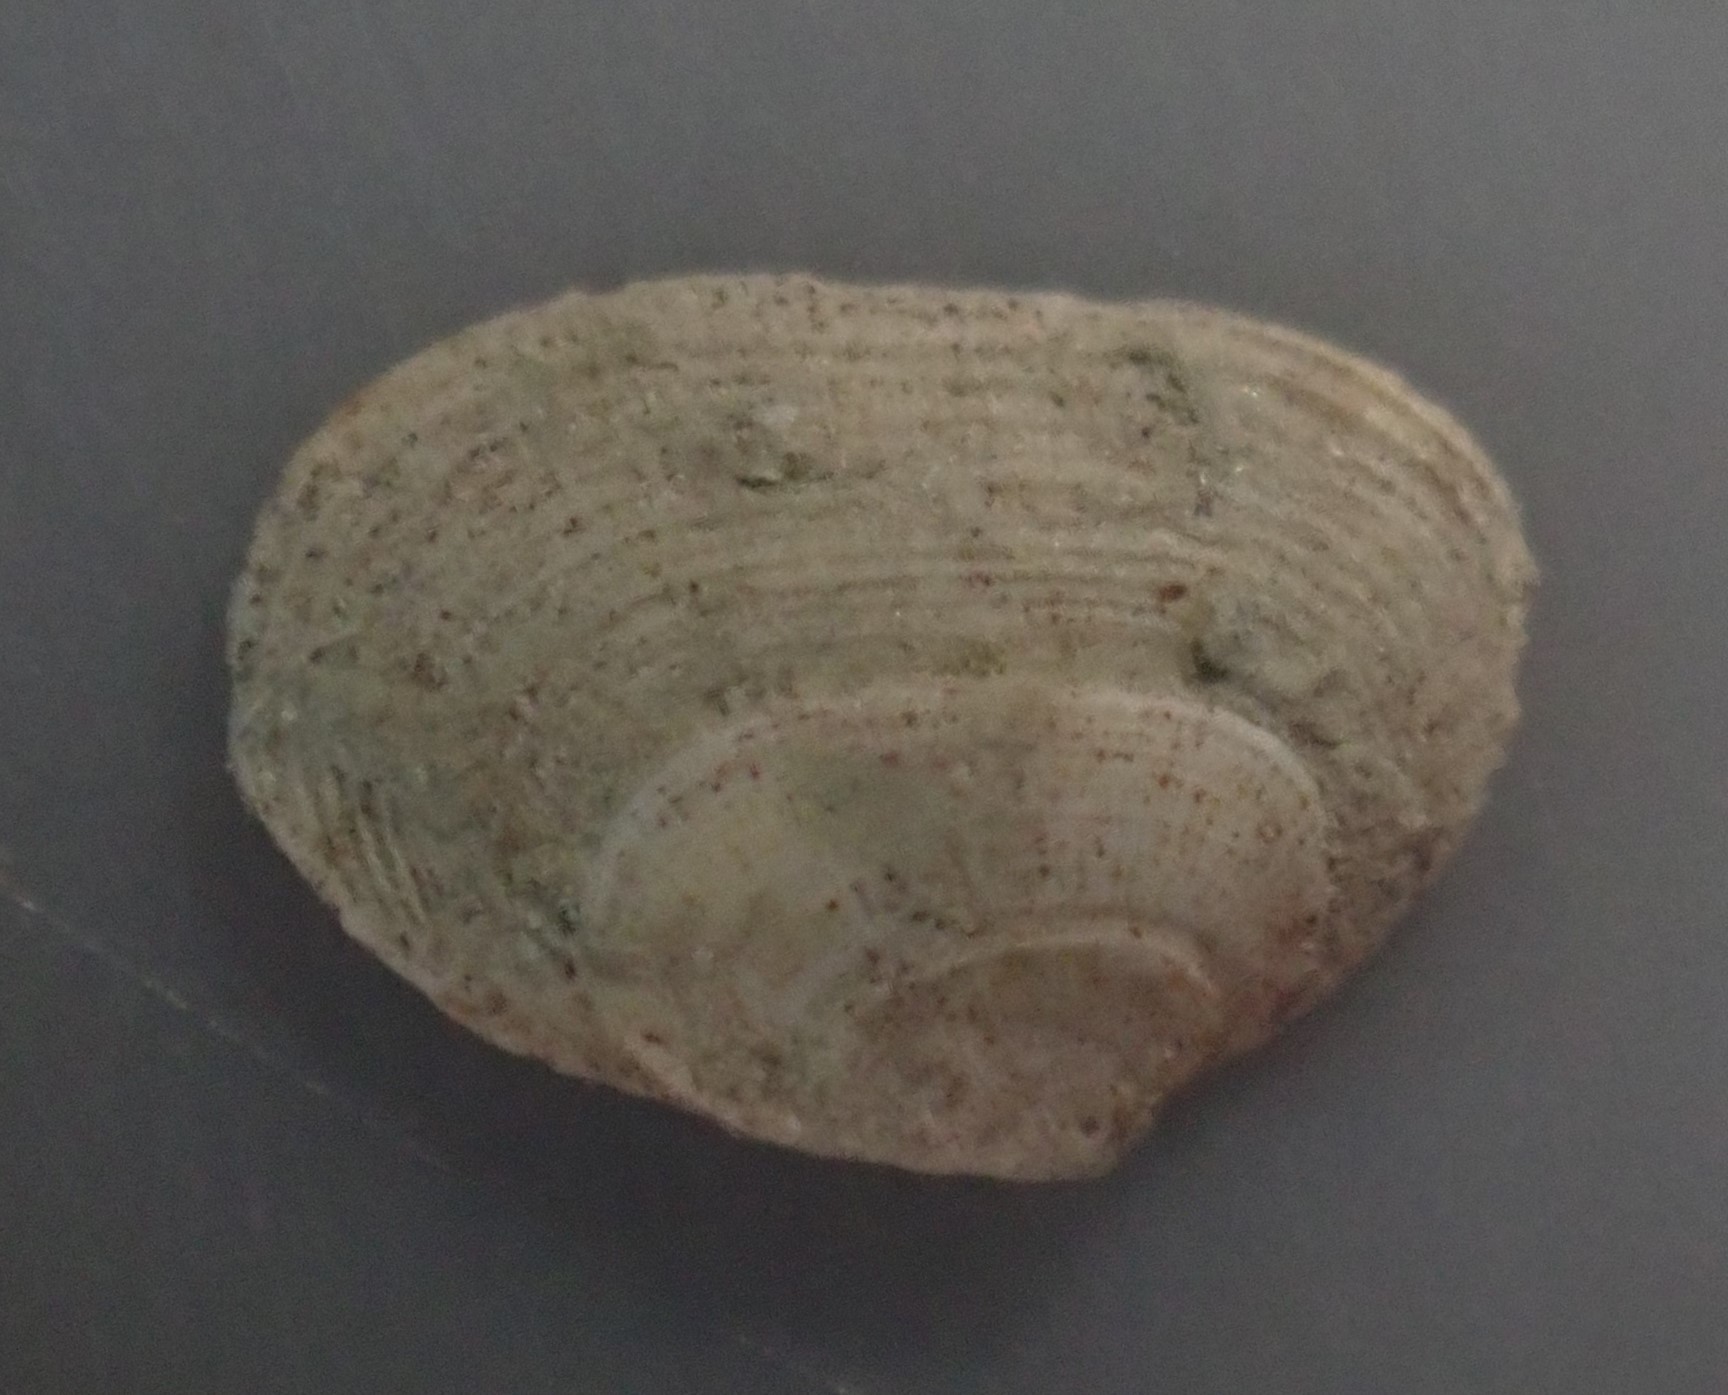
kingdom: Animalia
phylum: Mollusca
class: Bivalvia
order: Galeommatida
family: Lasaeidae
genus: Borniola
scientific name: Borniola reniformis
